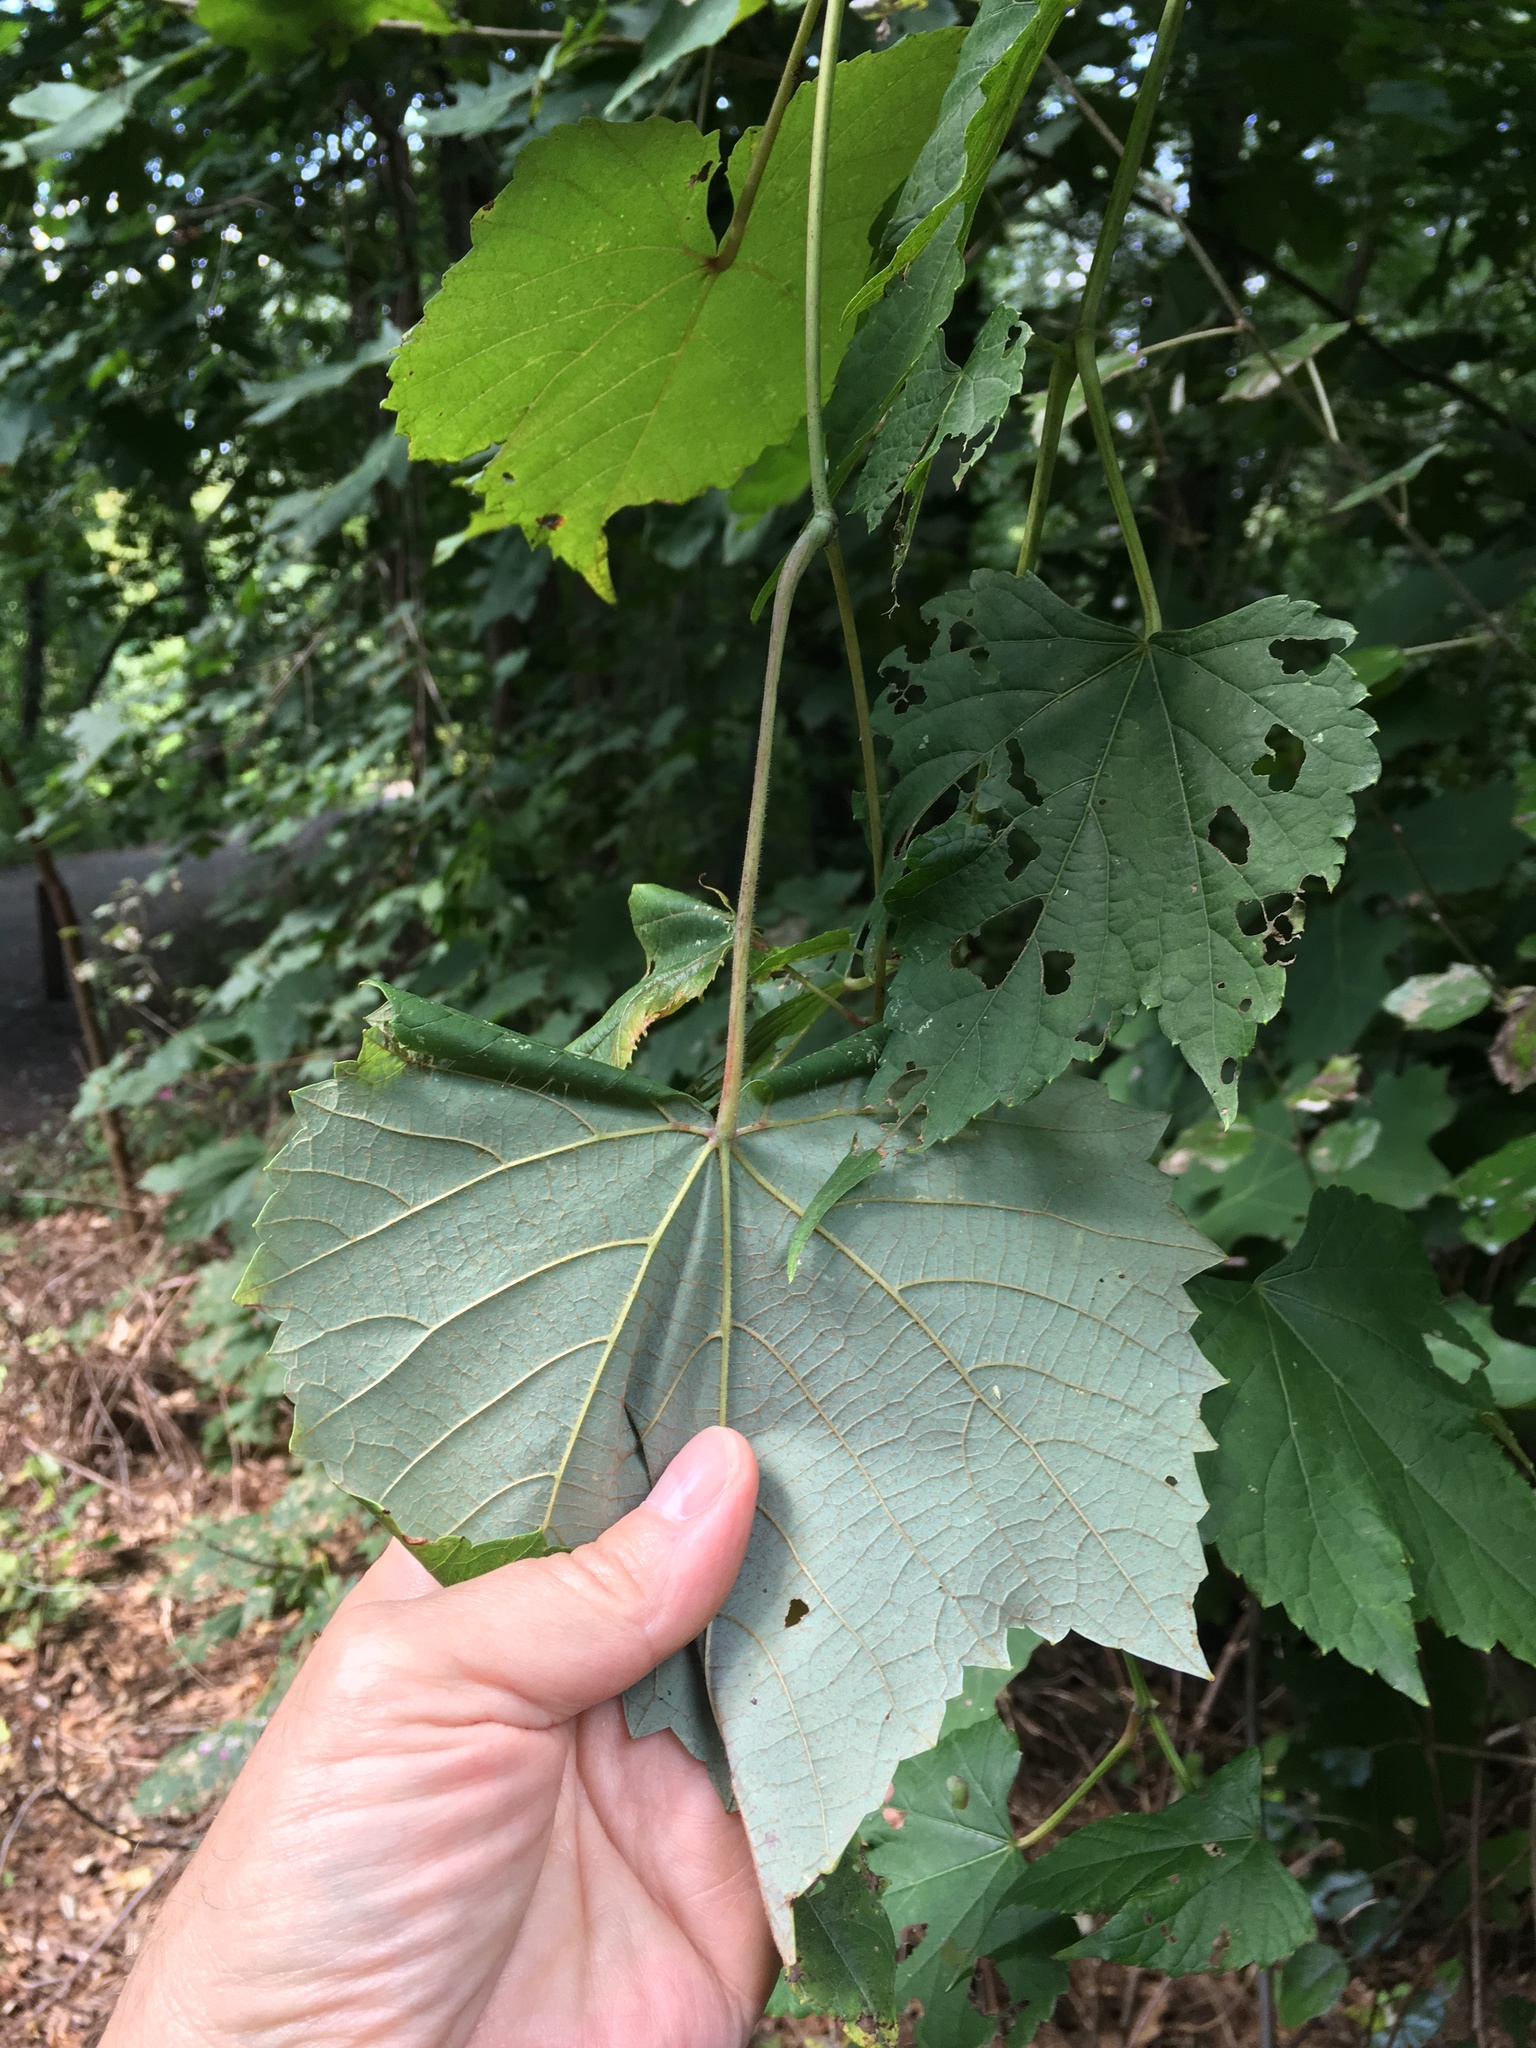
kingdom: Plantae
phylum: Tracheophyta
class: Magnoliopsida
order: Vitales
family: Vitaceae
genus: Vitis
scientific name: Vitis aestivalis
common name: Pigeon grape
